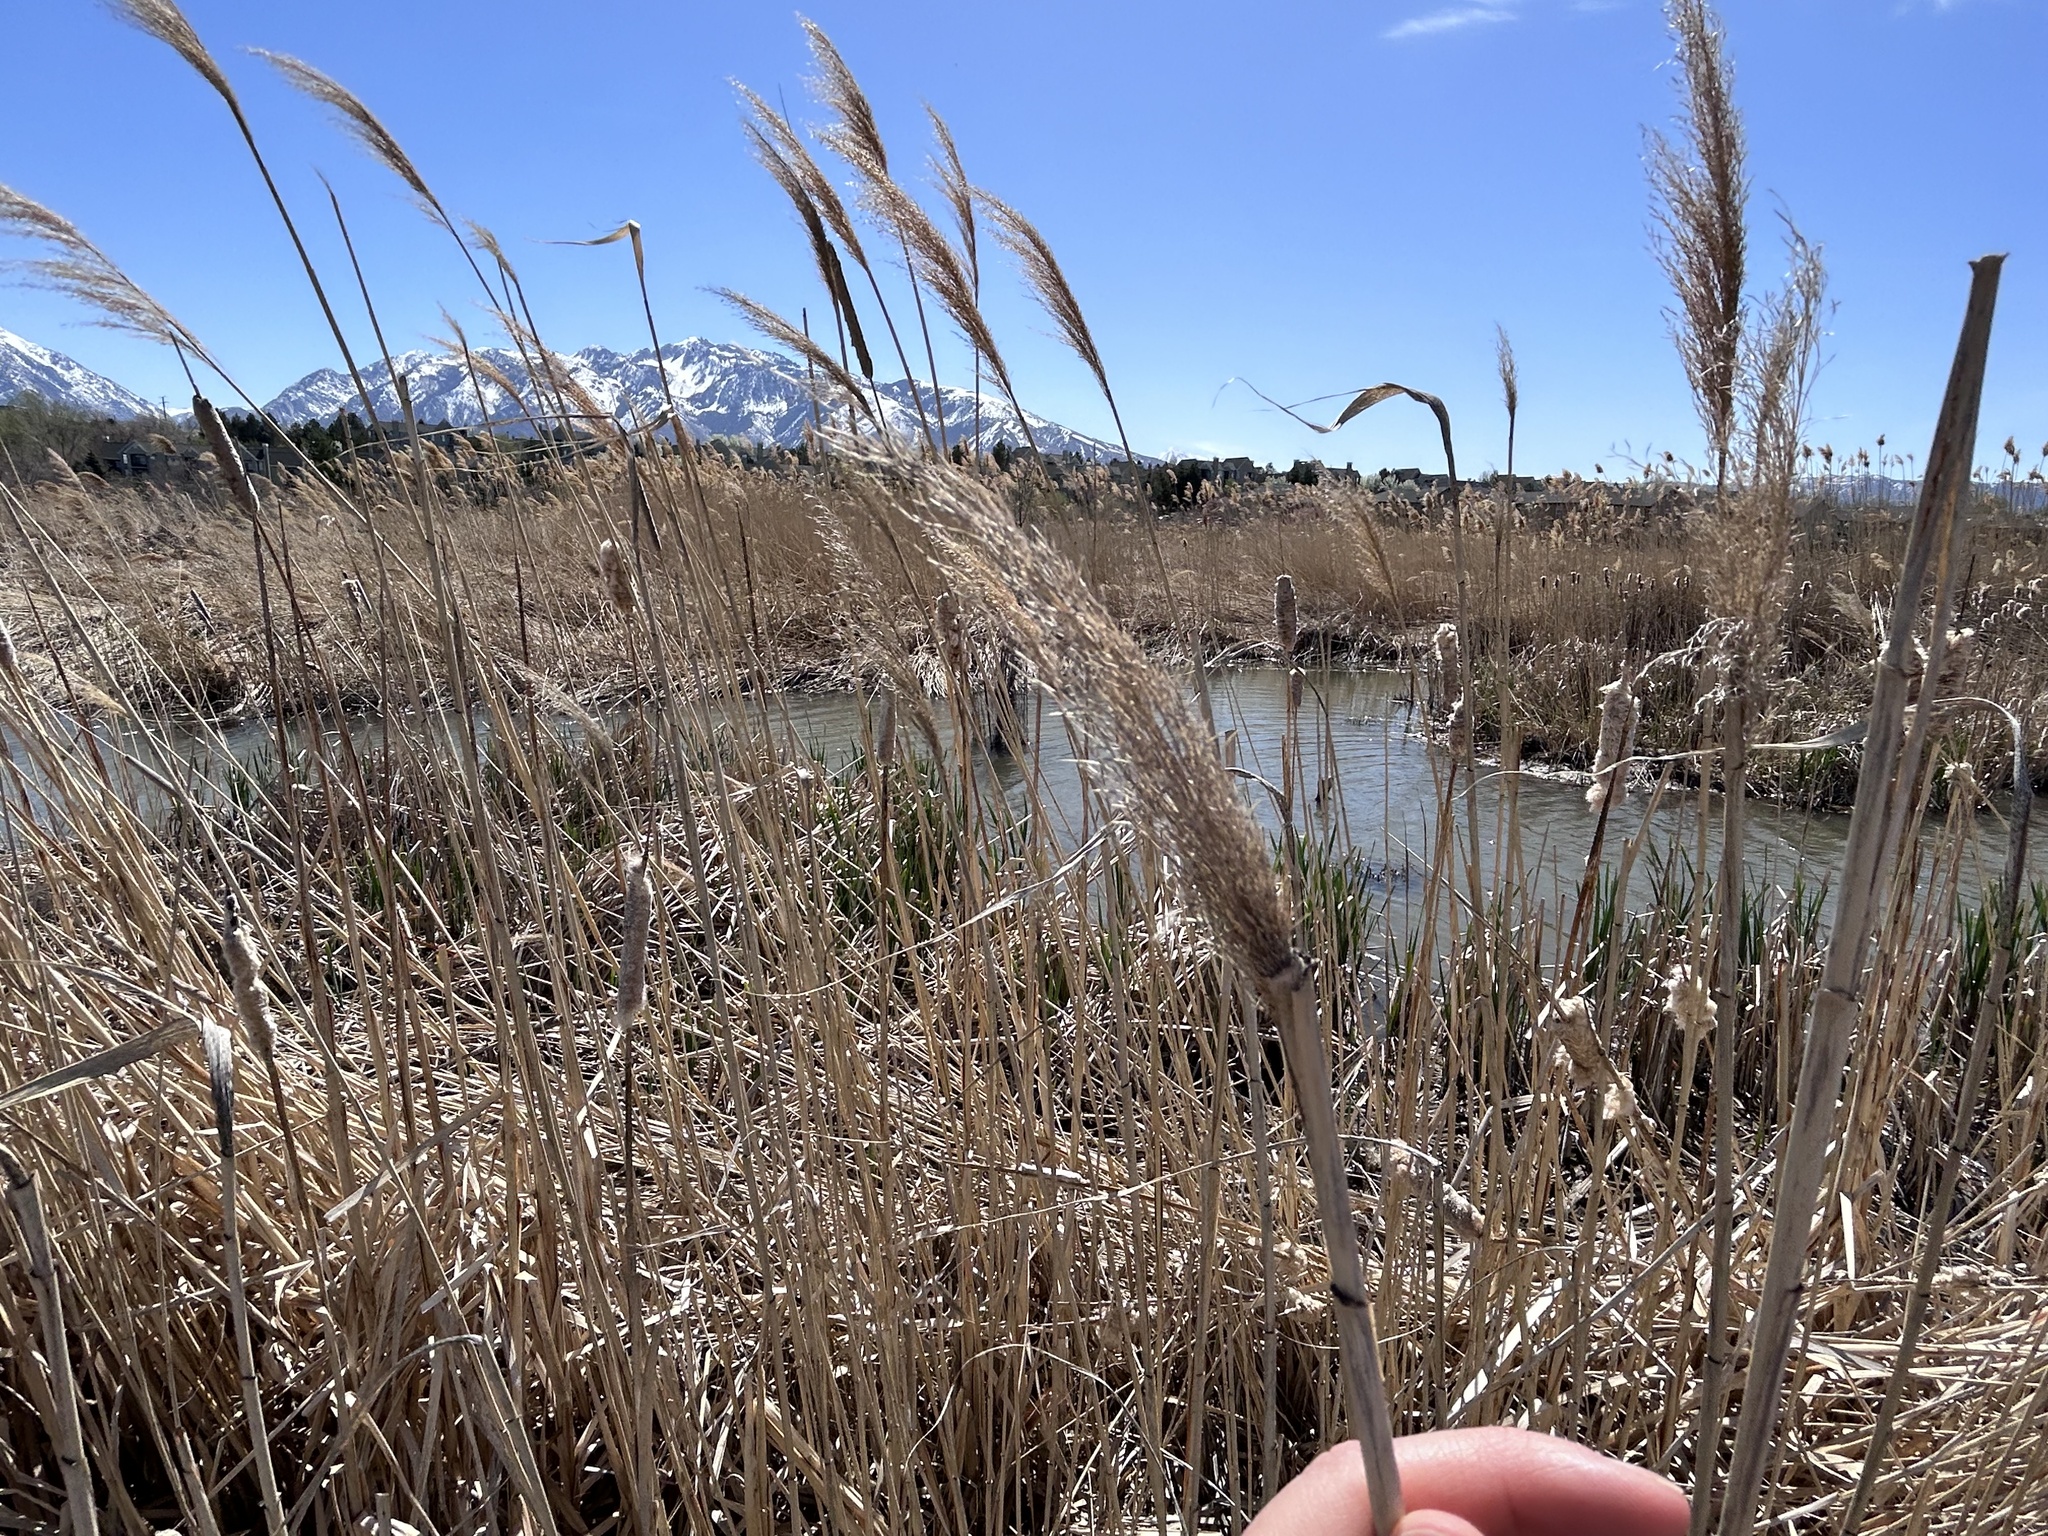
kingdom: Plantae
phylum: Tracheophyta
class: Liliopsida
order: Poales
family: Poaceae
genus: Phragmites
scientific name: Phragmites australis
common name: Common reed
